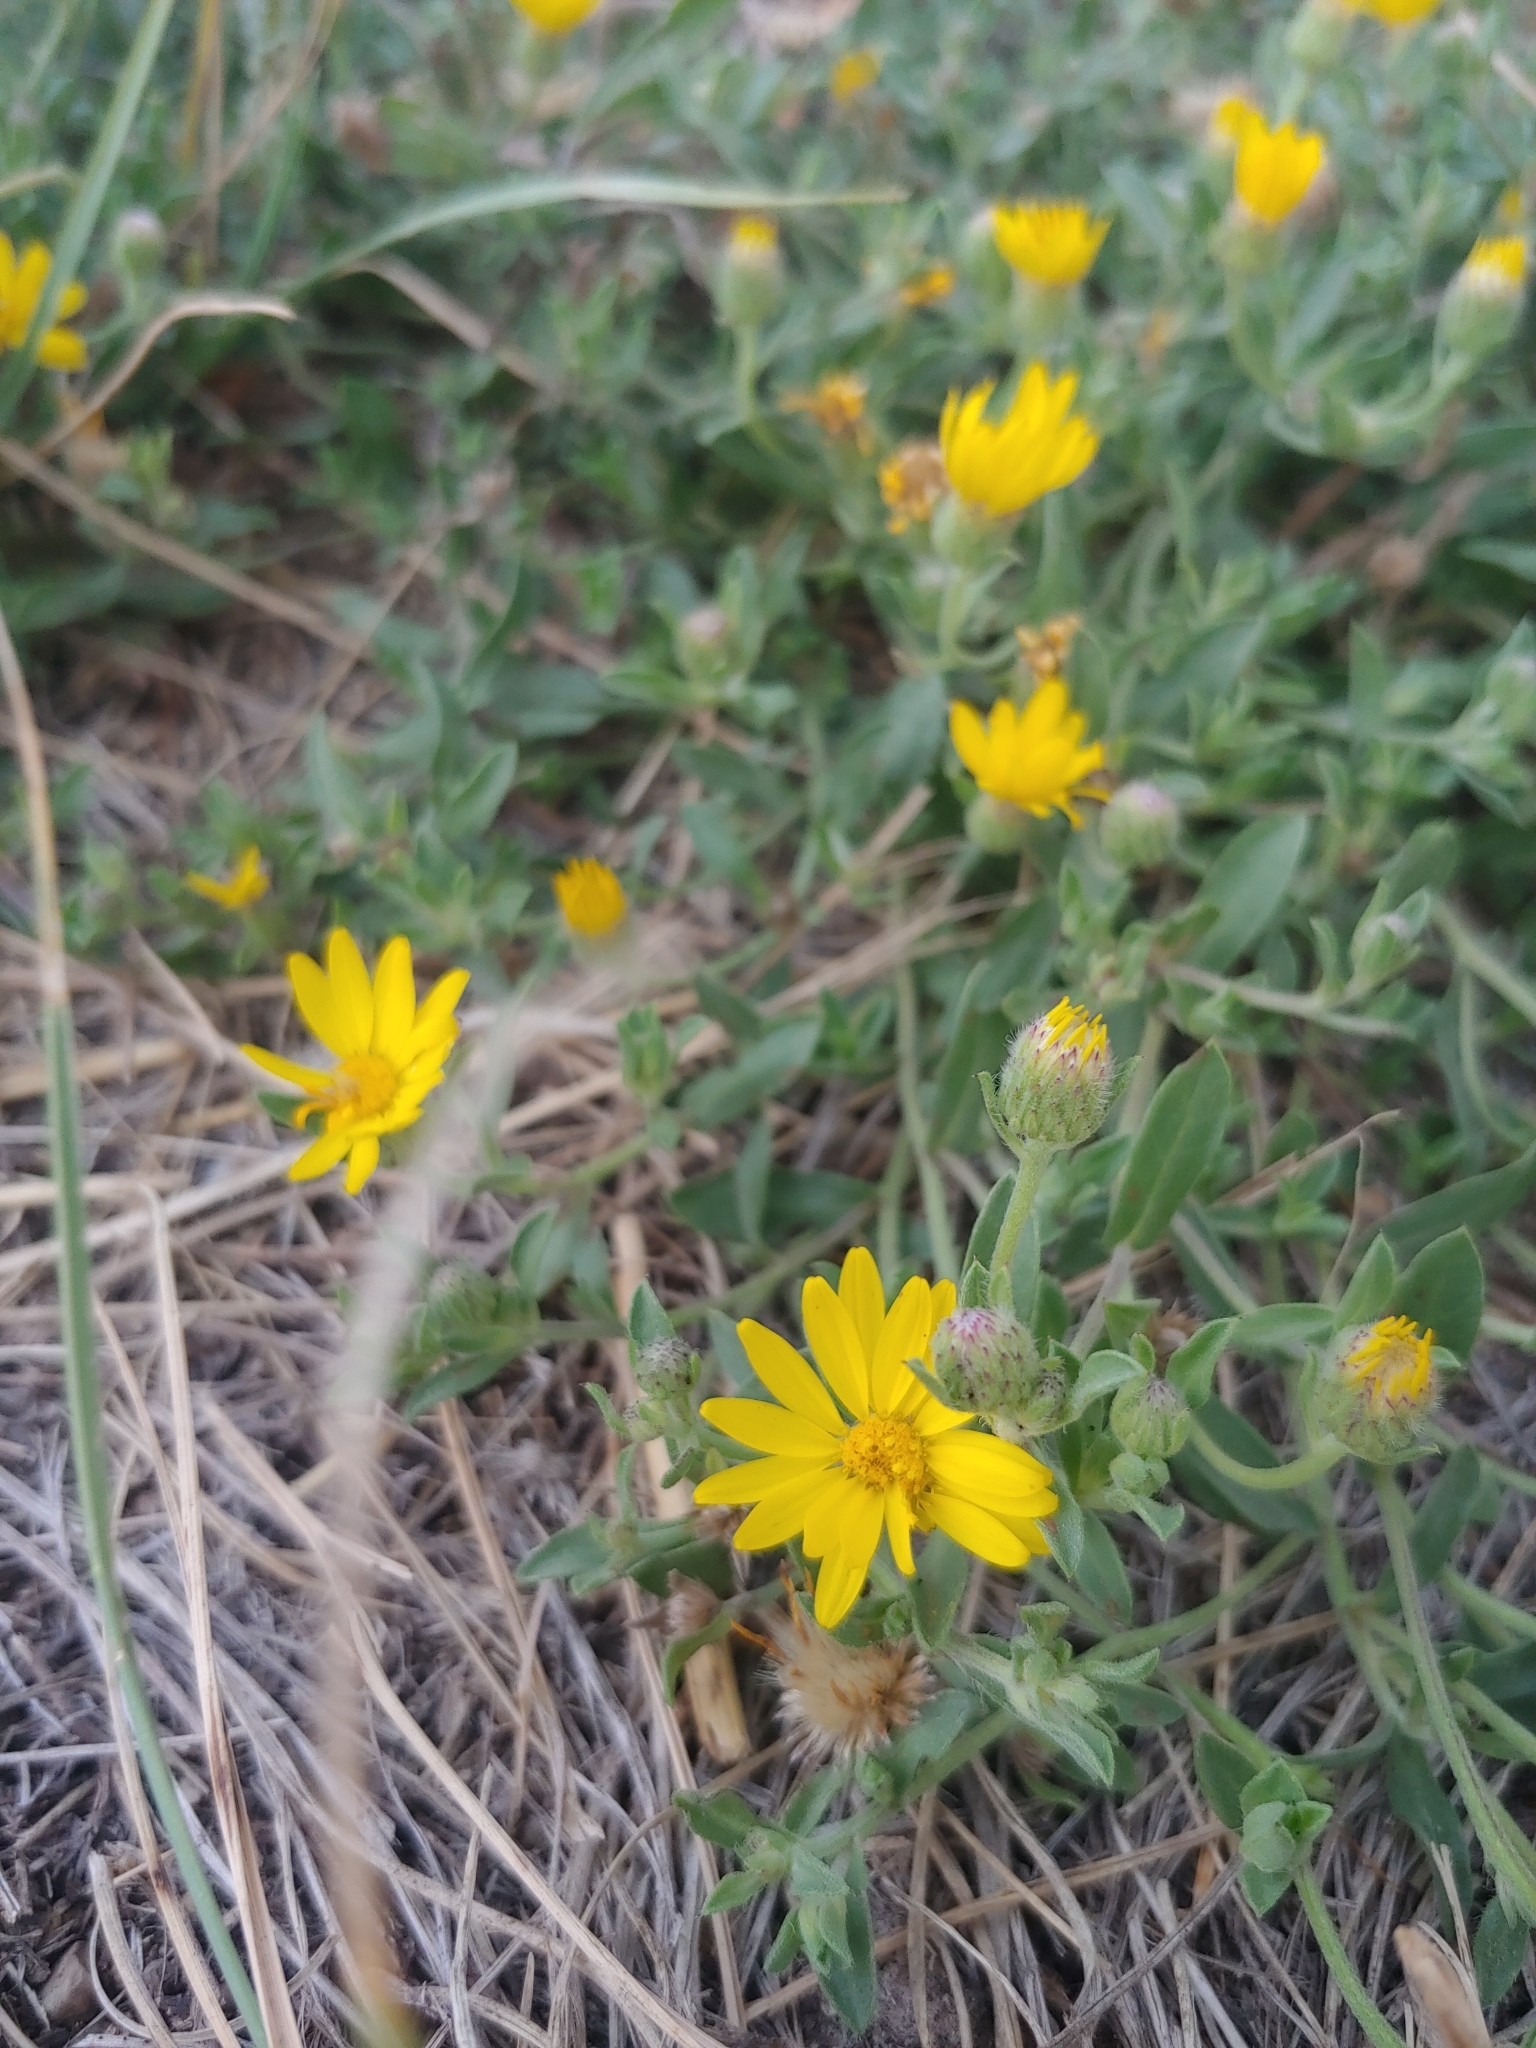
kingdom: Plantae
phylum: Tracheophyta
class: Magnoliopsida
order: Asterales
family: Asteraceae
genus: Heterotheca
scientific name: Heterotheca villosa
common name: Hairy false goldenaster
